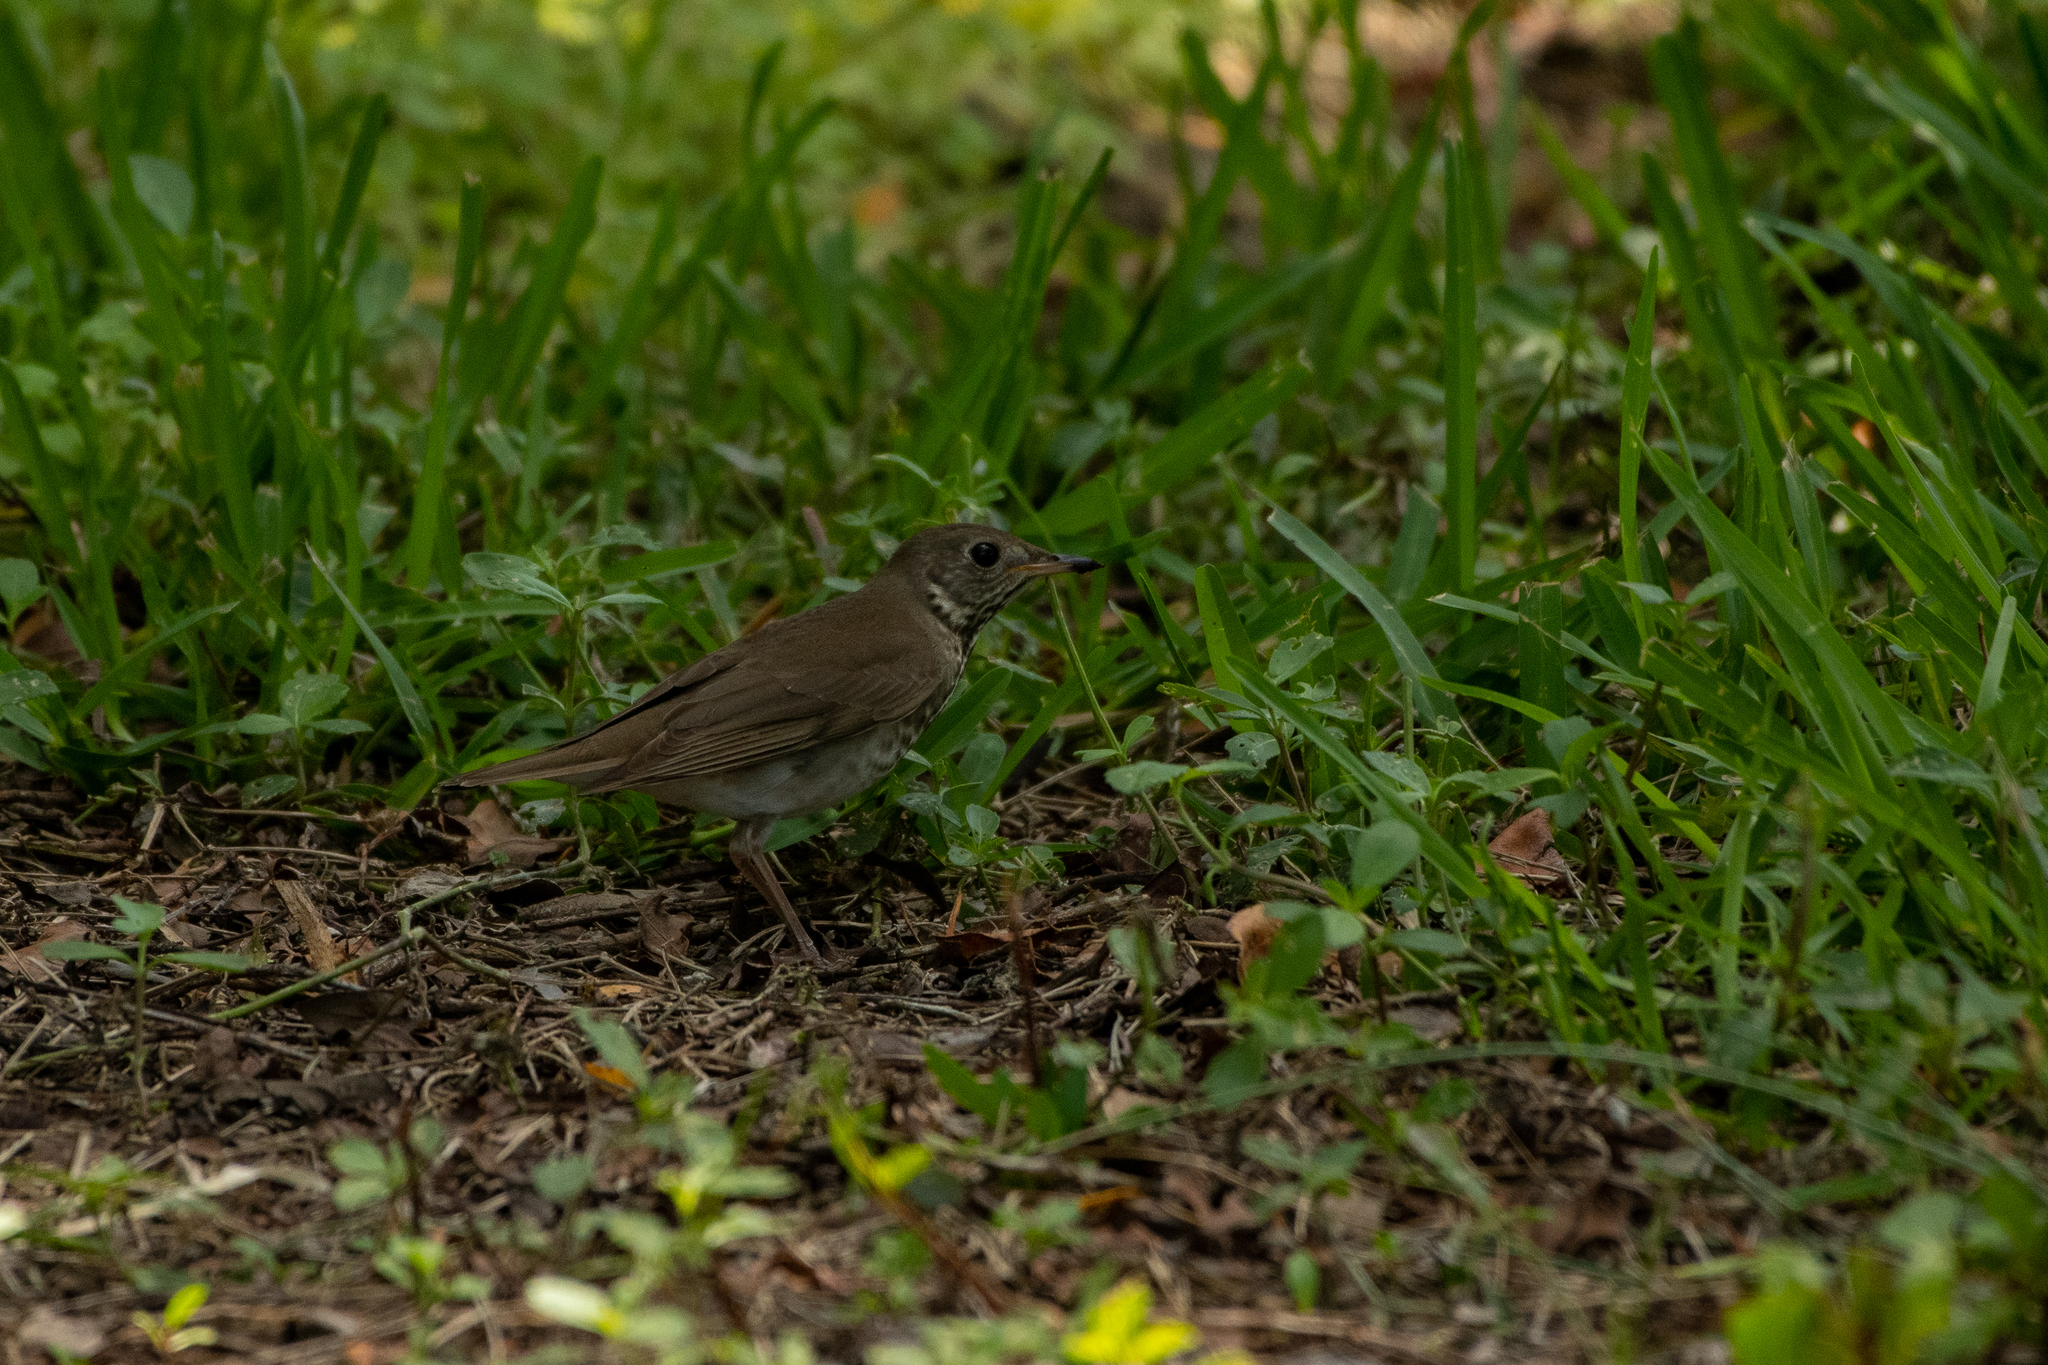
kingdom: Animalia
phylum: Chordata
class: Aves
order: Passeriformes
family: Turdidae
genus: Catharus
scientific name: Catharus minimus
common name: Grey-cheeked thrush
